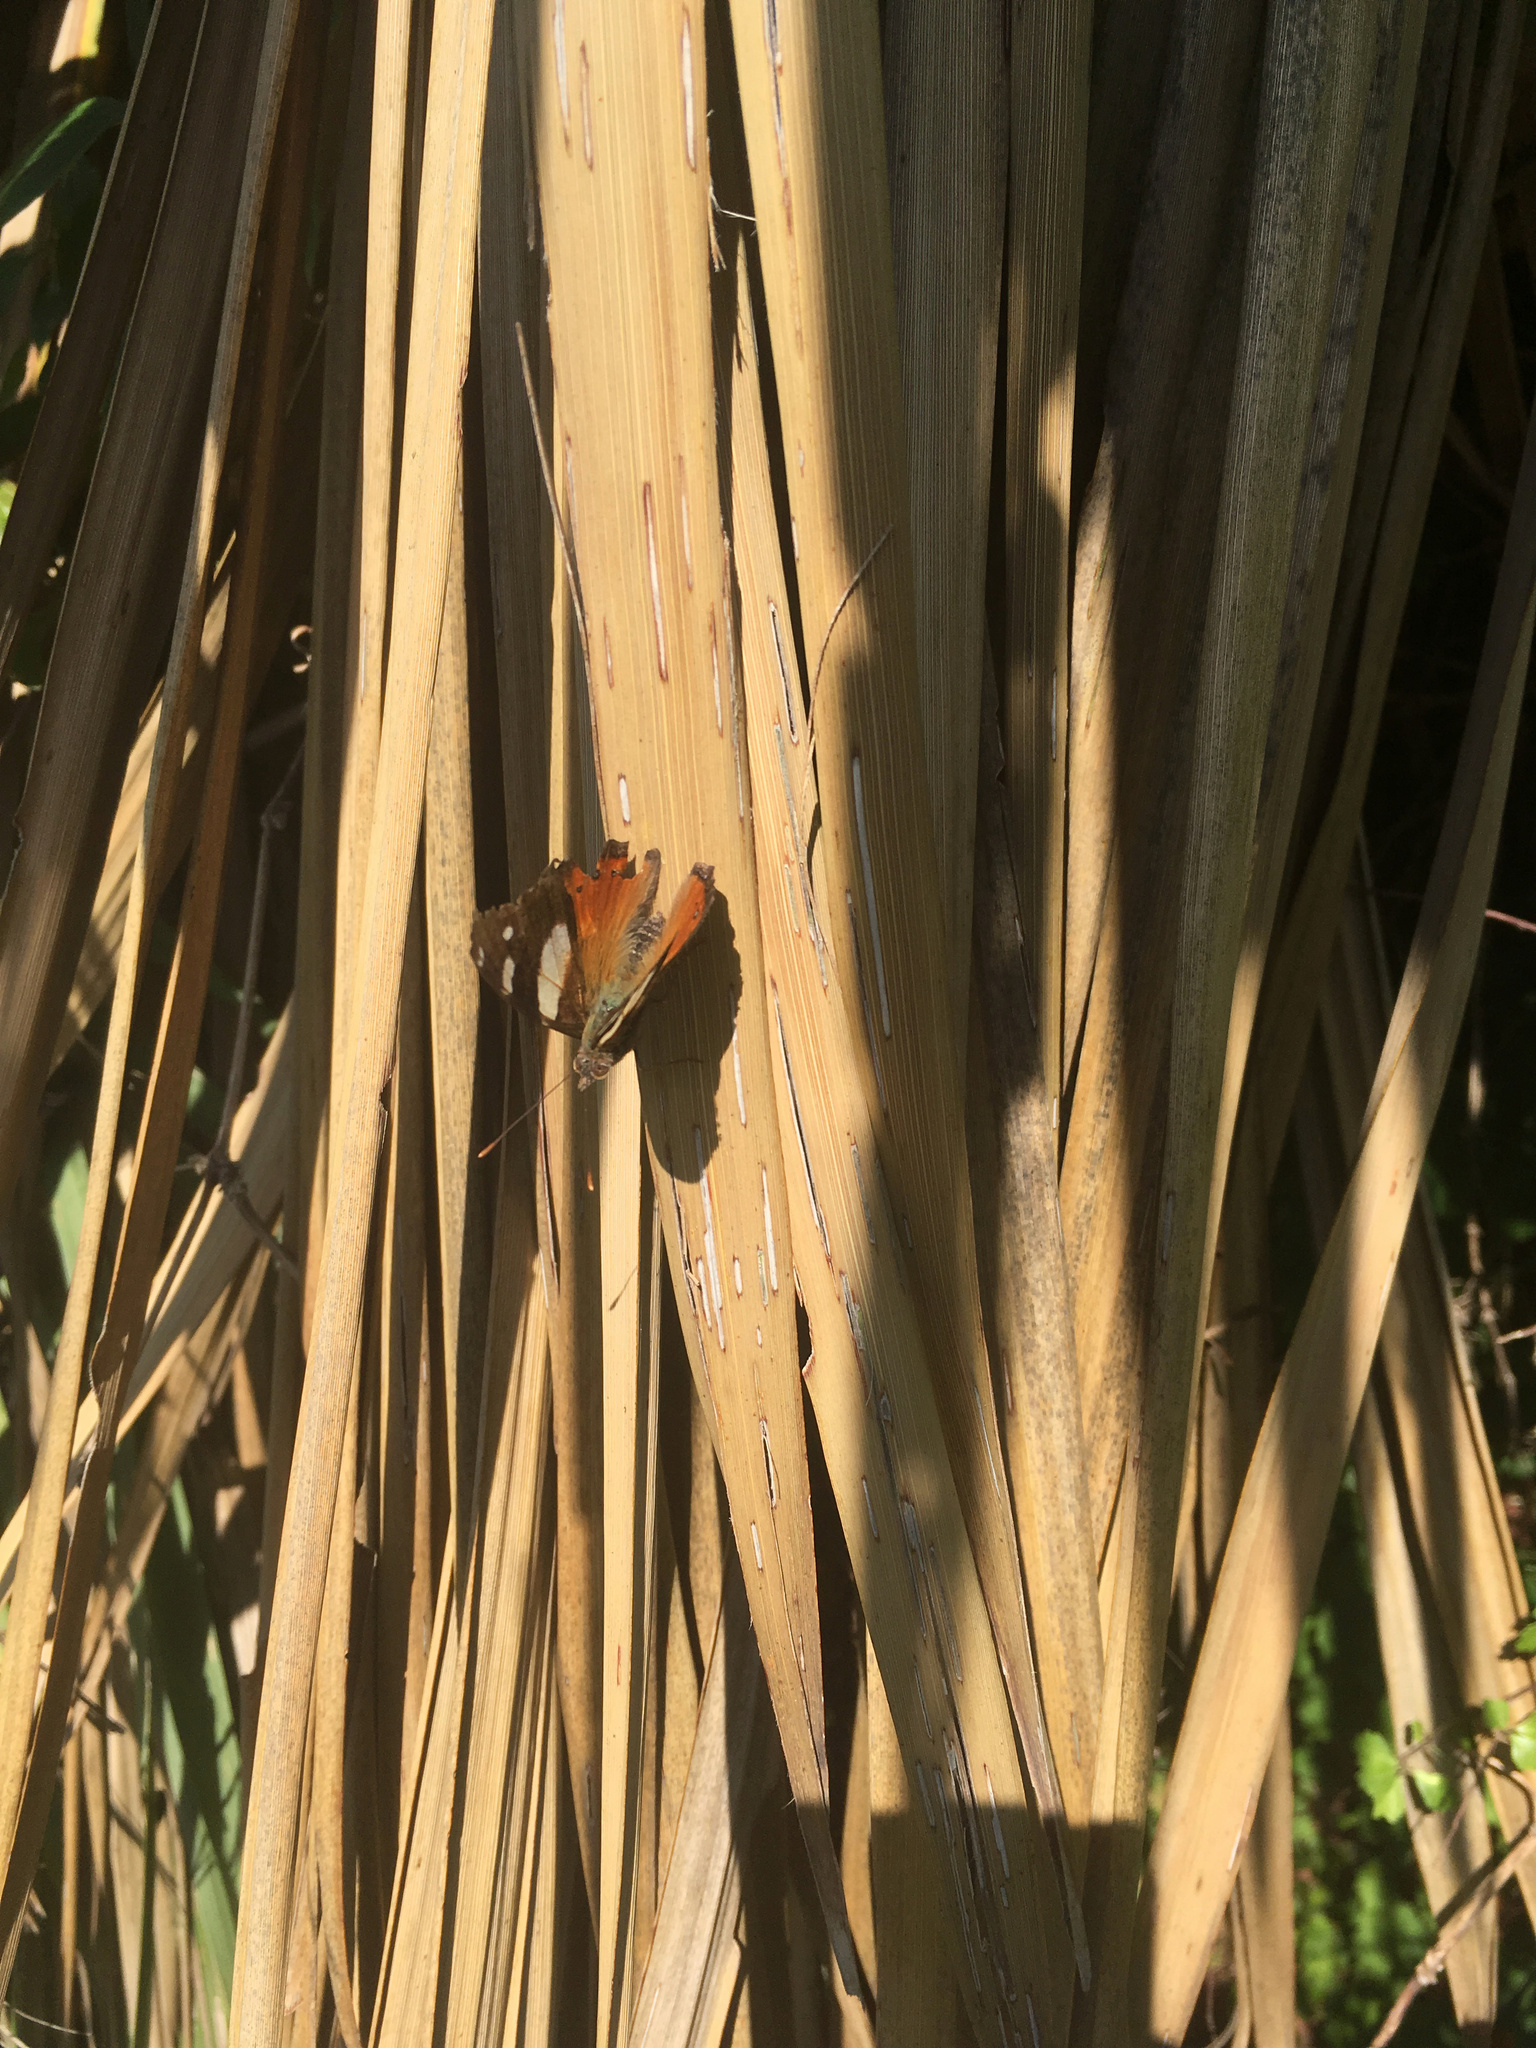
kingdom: Animalia
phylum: Arthropoda
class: Insecta
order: Lepidoptera
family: Nymphalidae
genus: Vanessa
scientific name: Vanessa itea
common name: Yellow admiral
